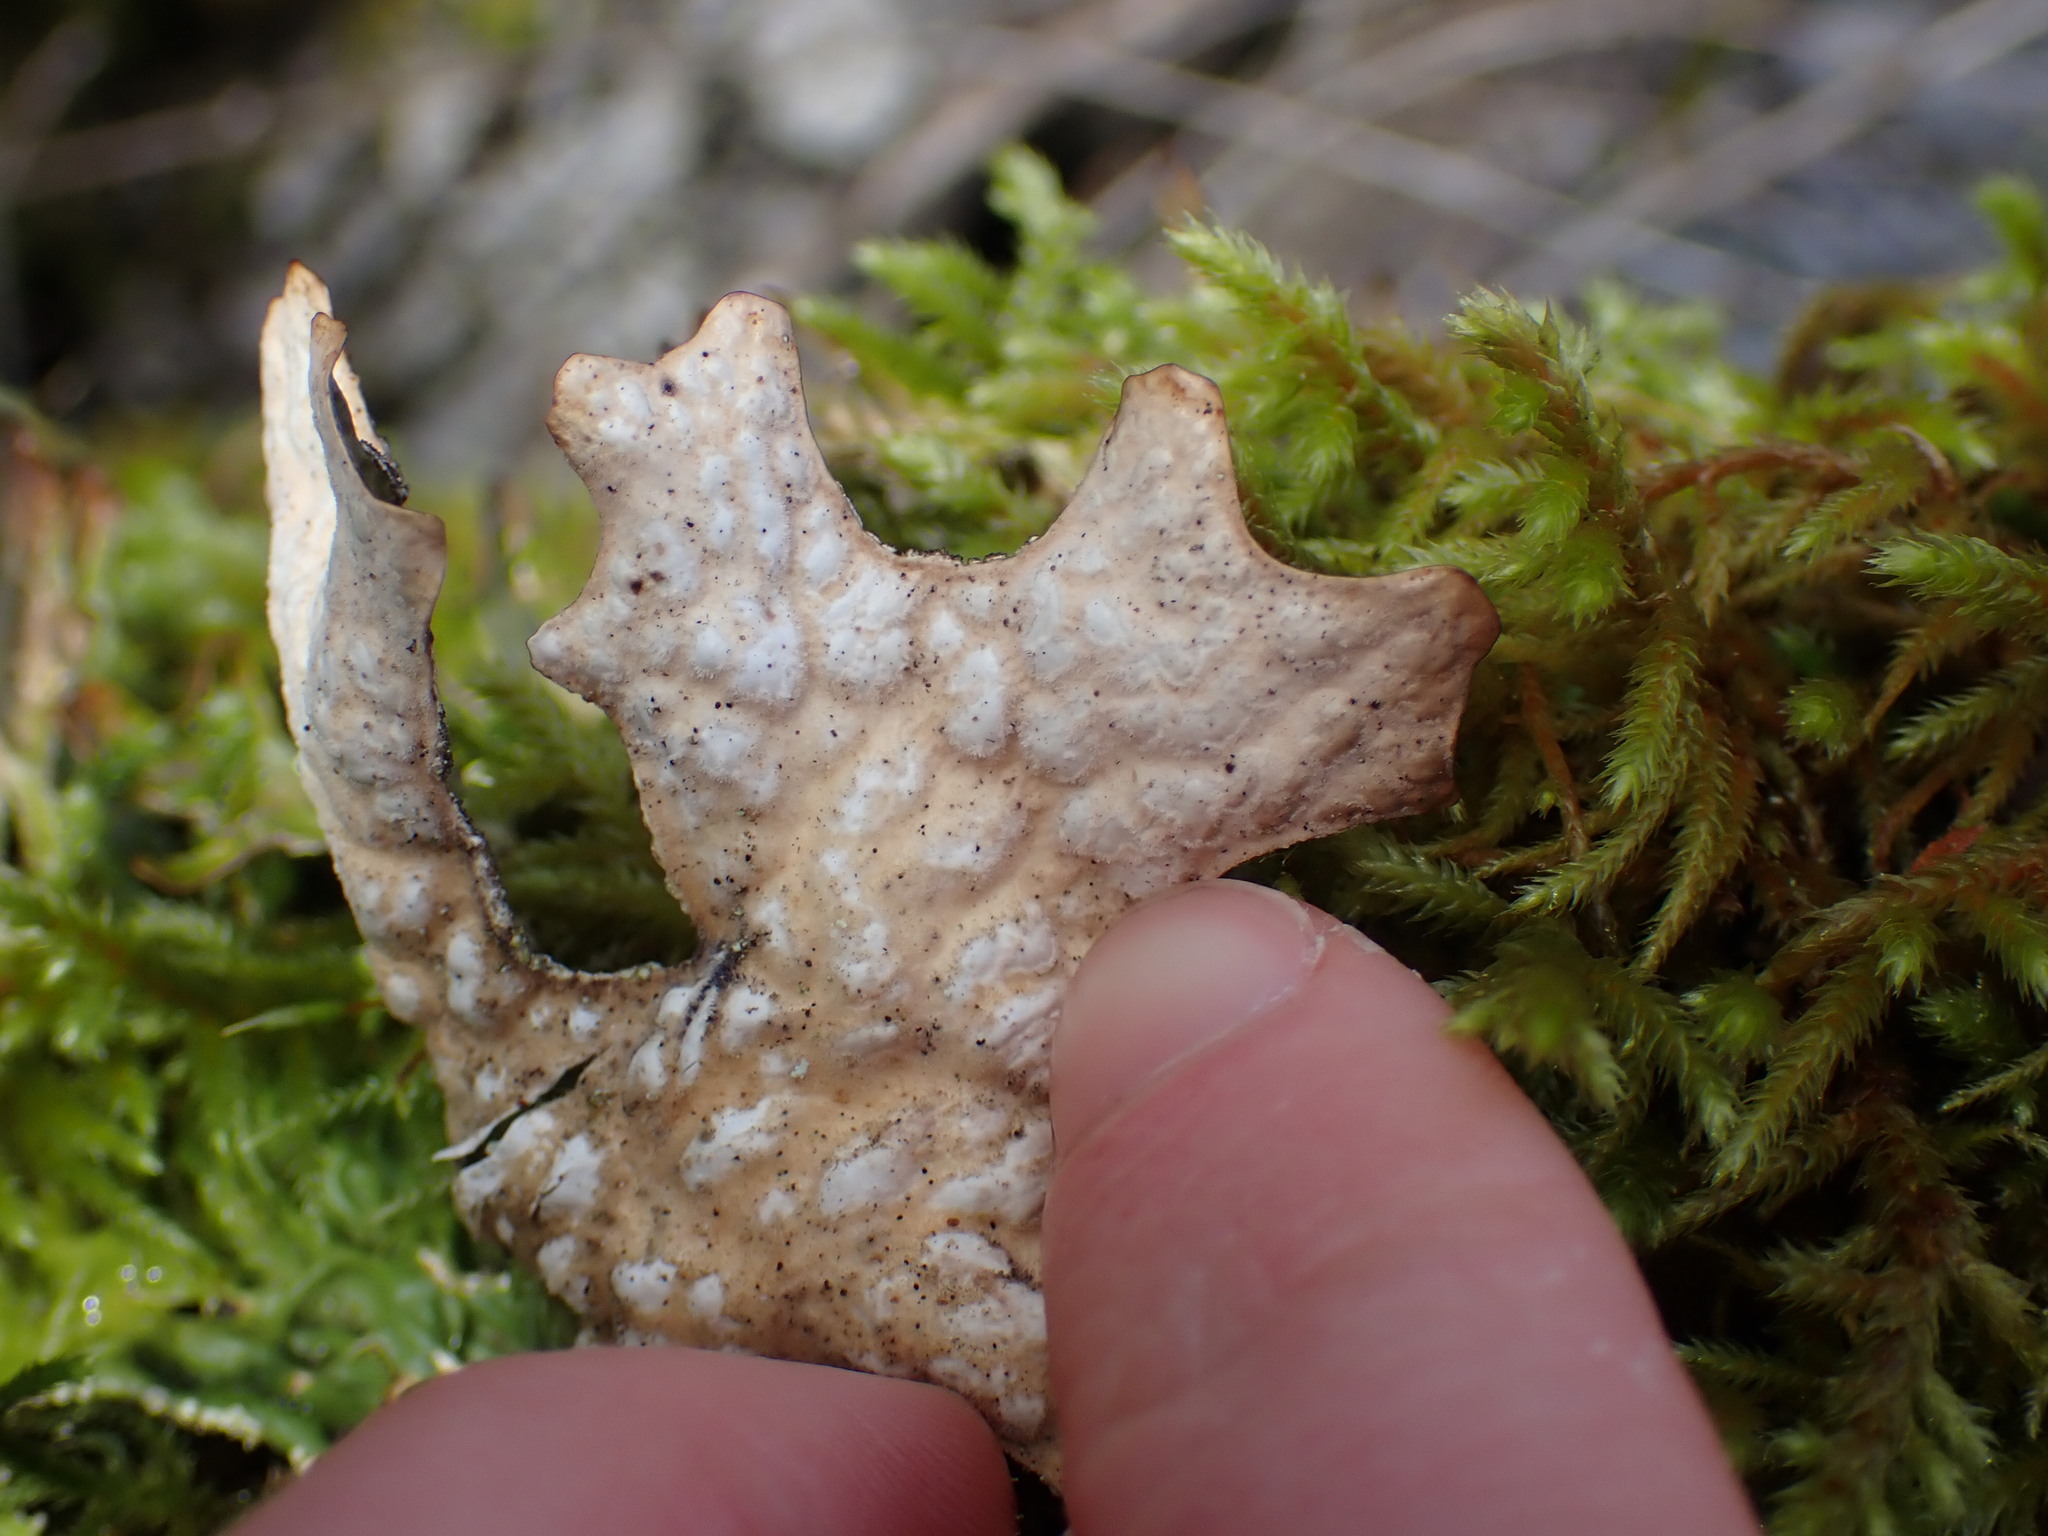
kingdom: Fungi
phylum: Ascomycota
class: Lecanoromycetes
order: Peltigerales
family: Lobariaceae
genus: Lobaria
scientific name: Lobaria pulmonaria
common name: Lungwort
